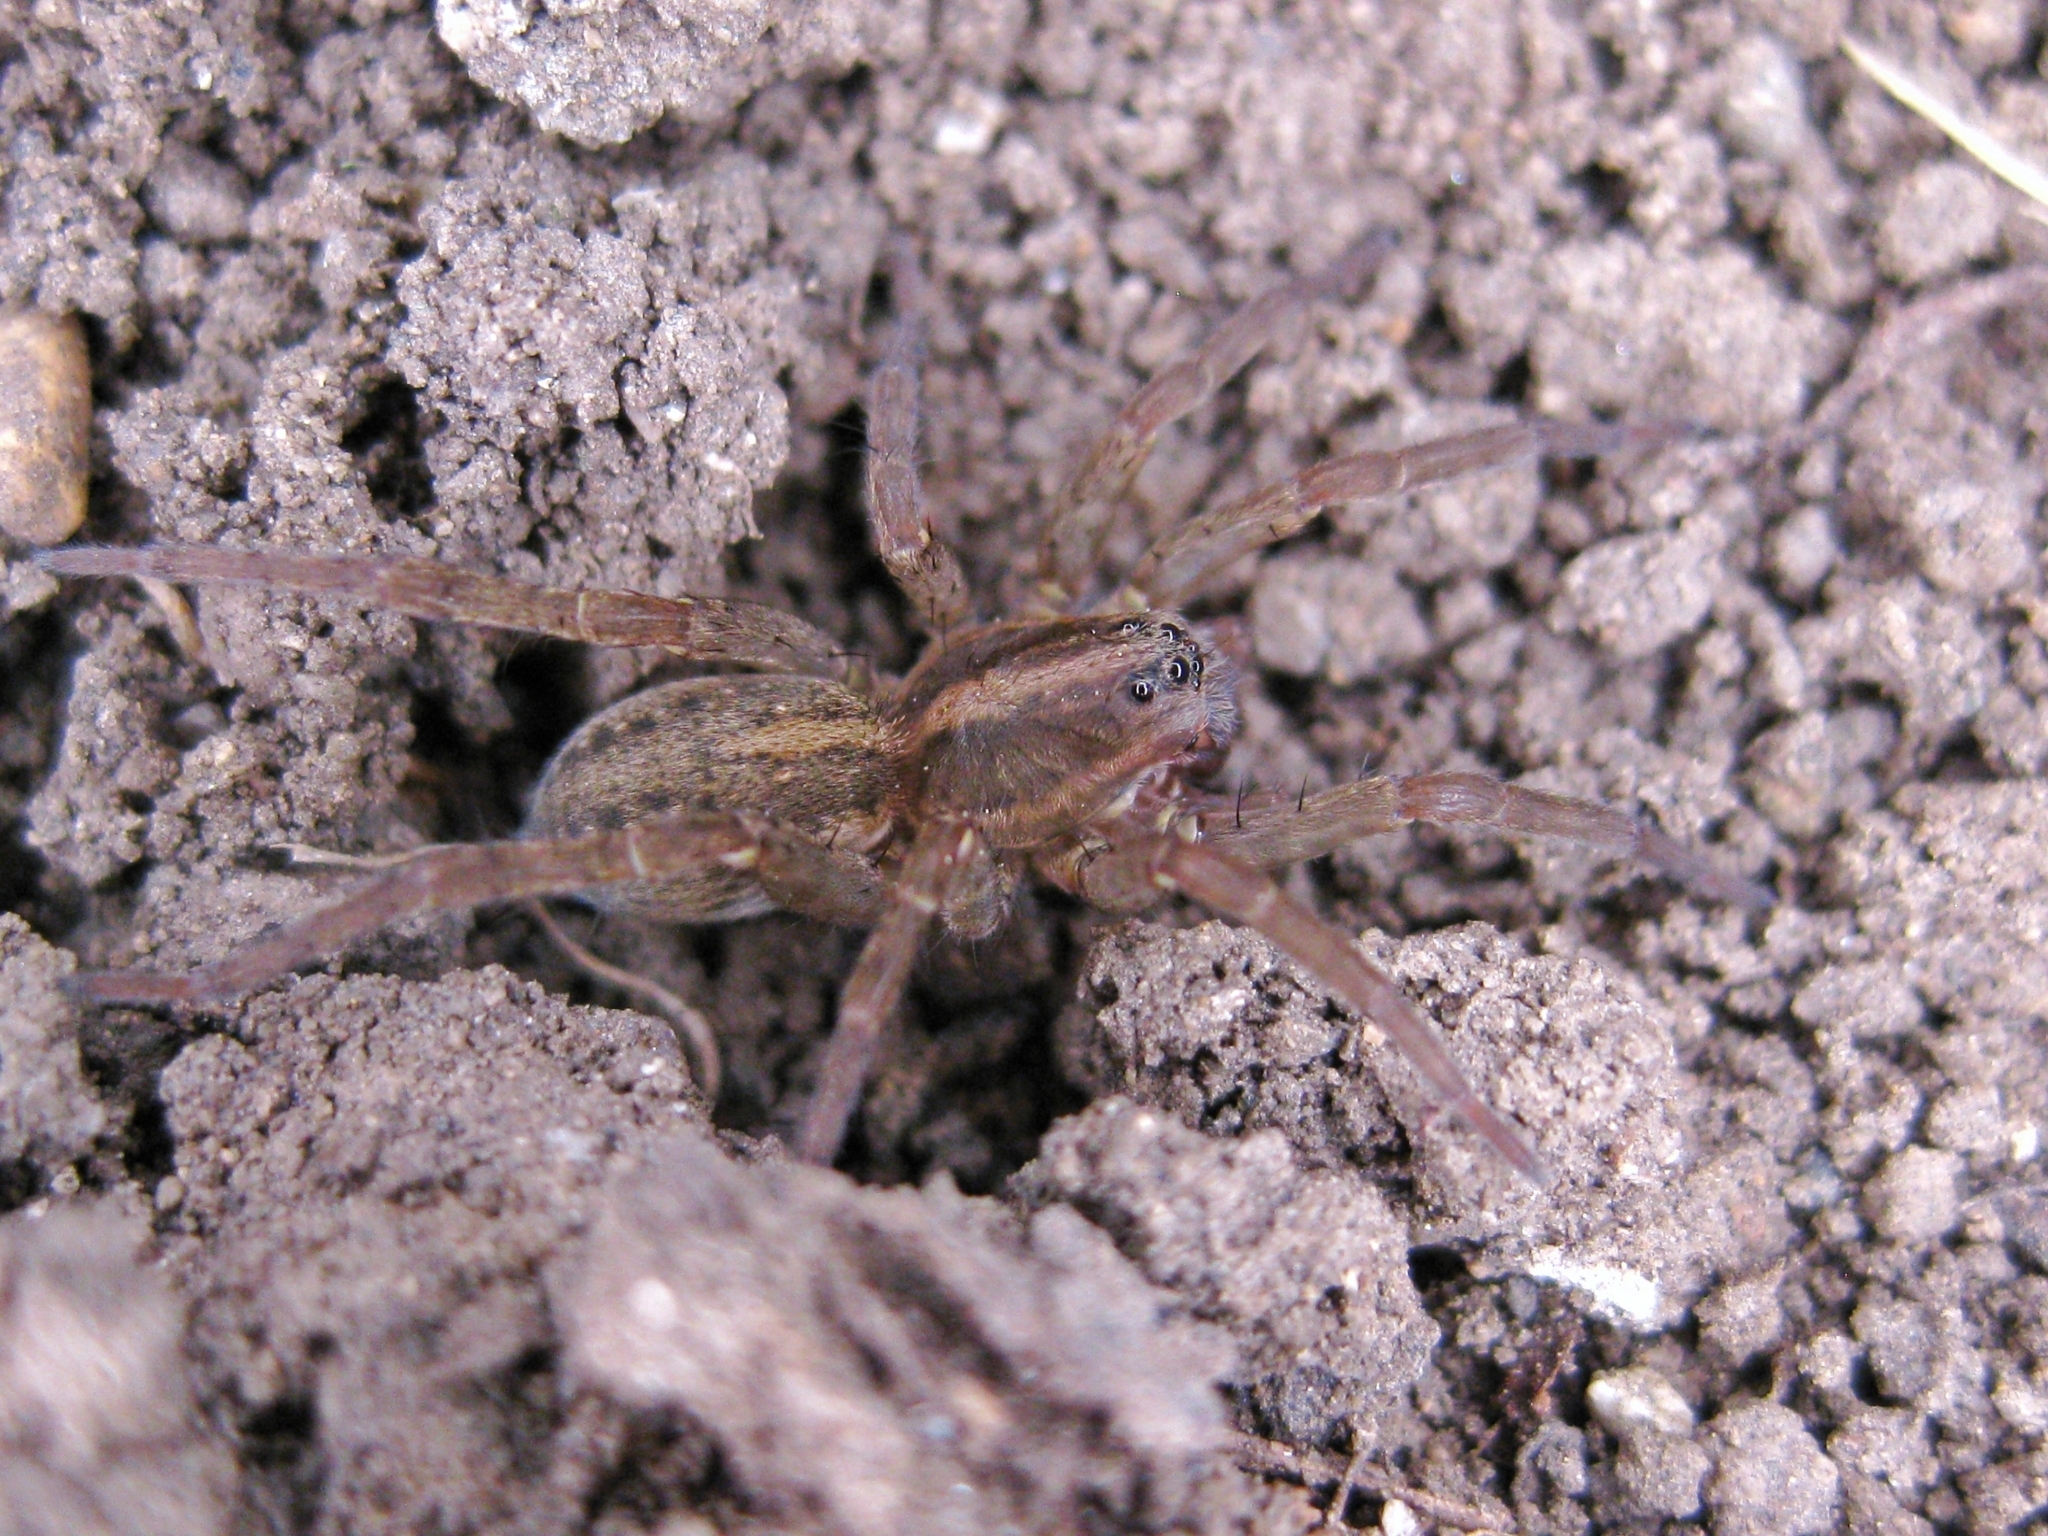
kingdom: Animalia
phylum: Arthropoda
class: Arachnida
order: Araneae
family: Lycosidae
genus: Trochosa
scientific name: Trochosa
